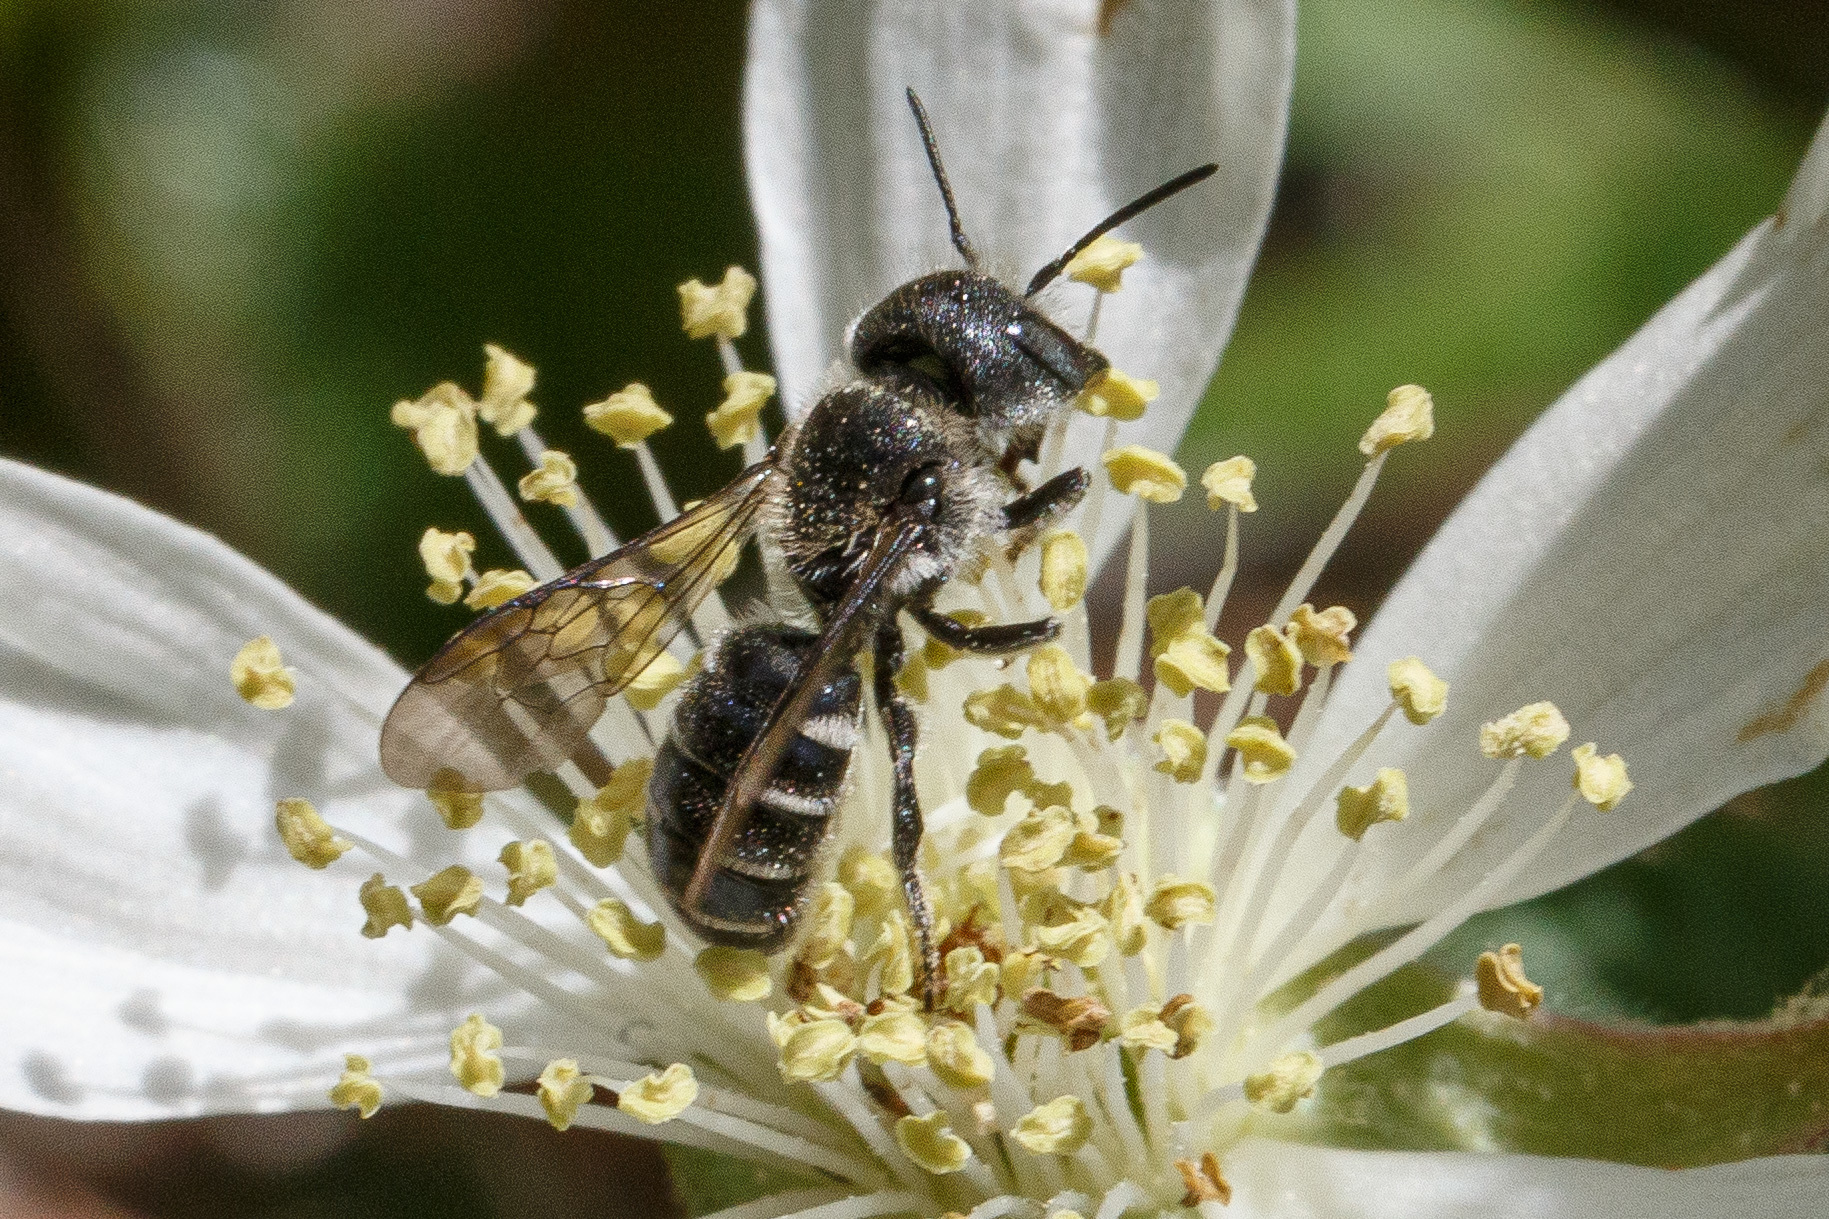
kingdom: Animalia
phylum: Arthropoda
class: Insecta
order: Hymenoptera
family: Megachilidae
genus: Protosmia
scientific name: Protosmia rubifloris
